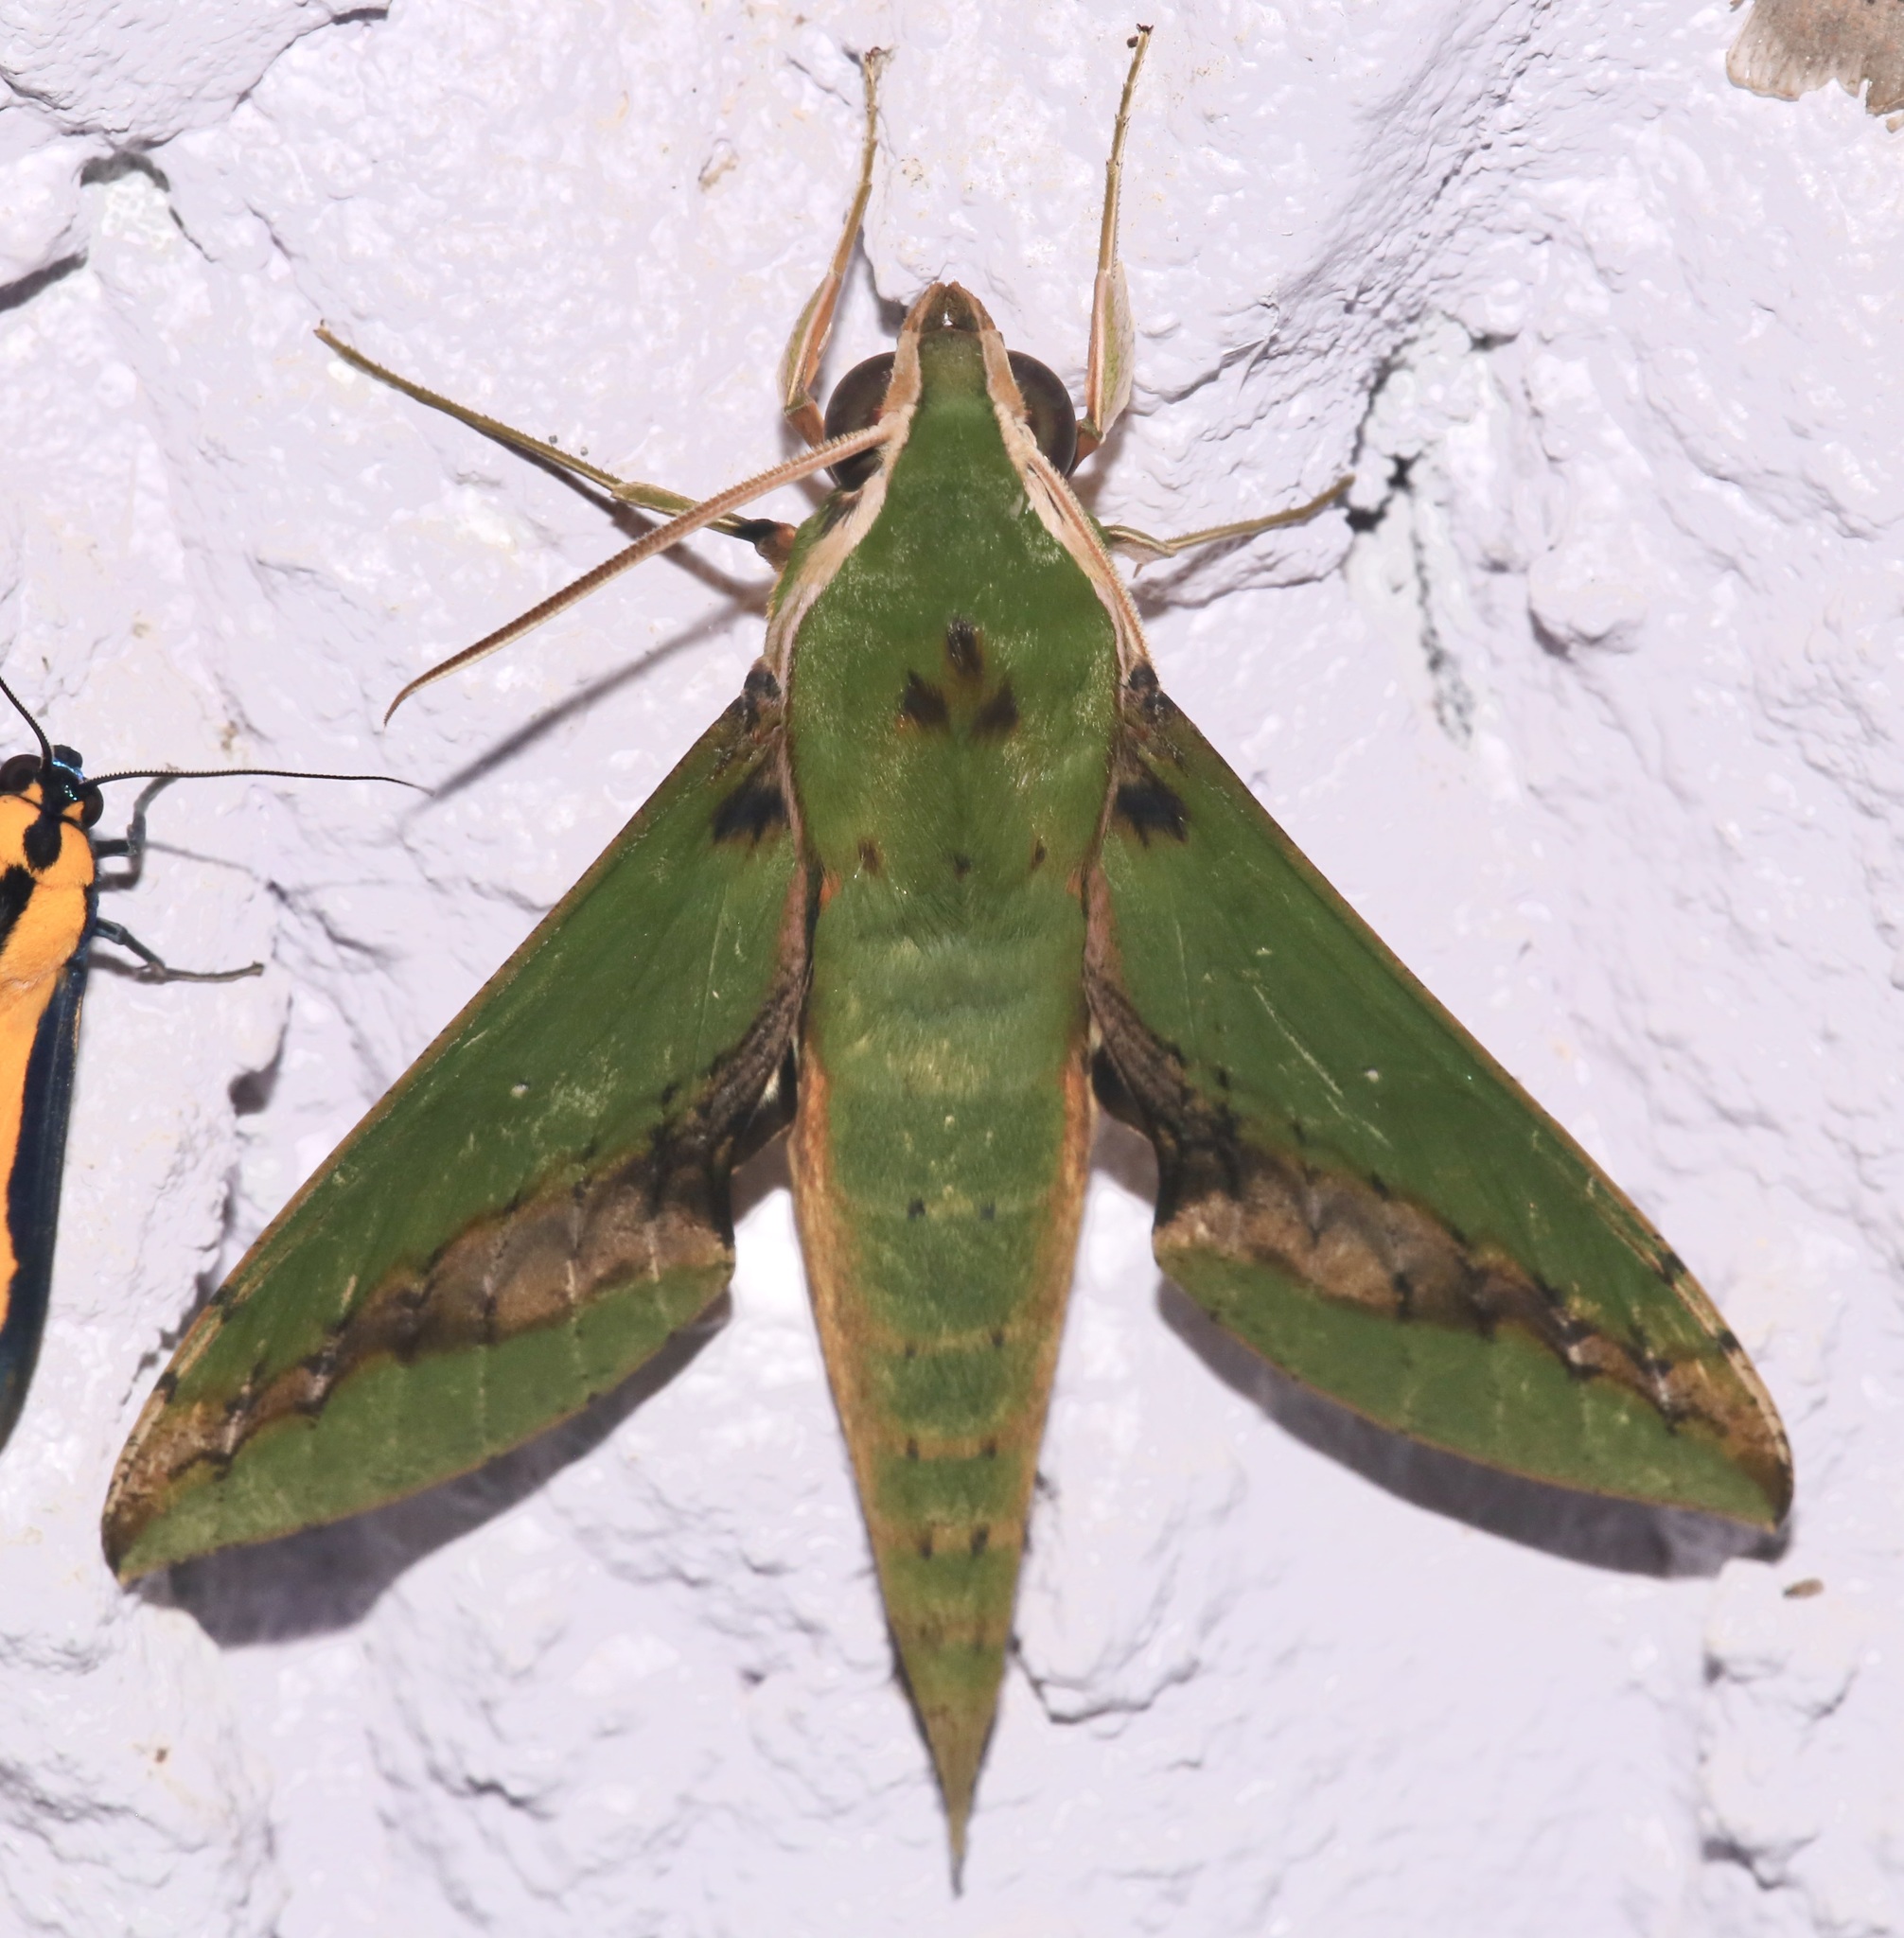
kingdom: Animalia
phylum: Arthropoda
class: Insecta
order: Lepidoptera
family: Sphingidae
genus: Xylophanes
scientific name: Xylophanes chiron
